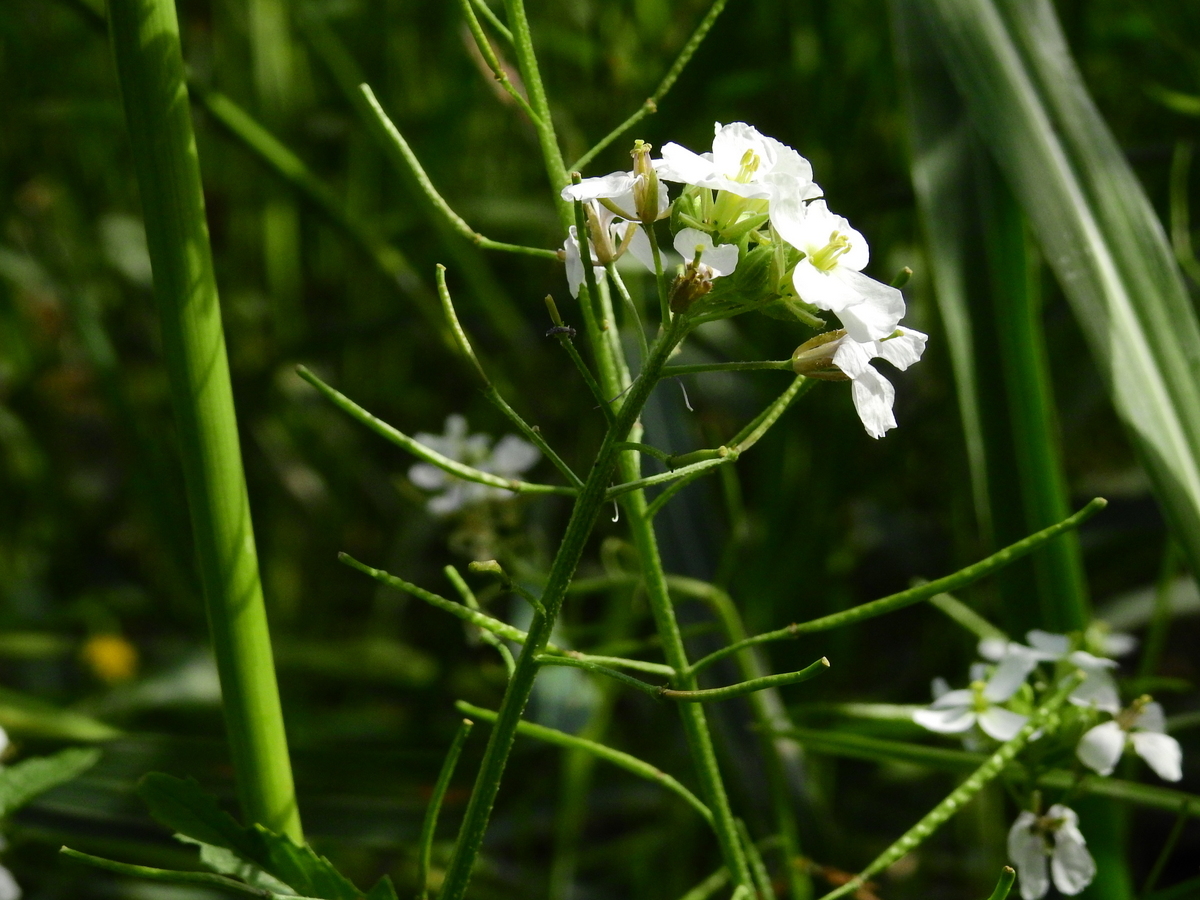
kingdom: Plantae
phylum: Tracheophyta
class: Magnoliopsida
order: Brassicales
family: Brassicaceae
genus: Diplotaxis
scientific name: Diplotaxis erucoides
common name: White rocket
